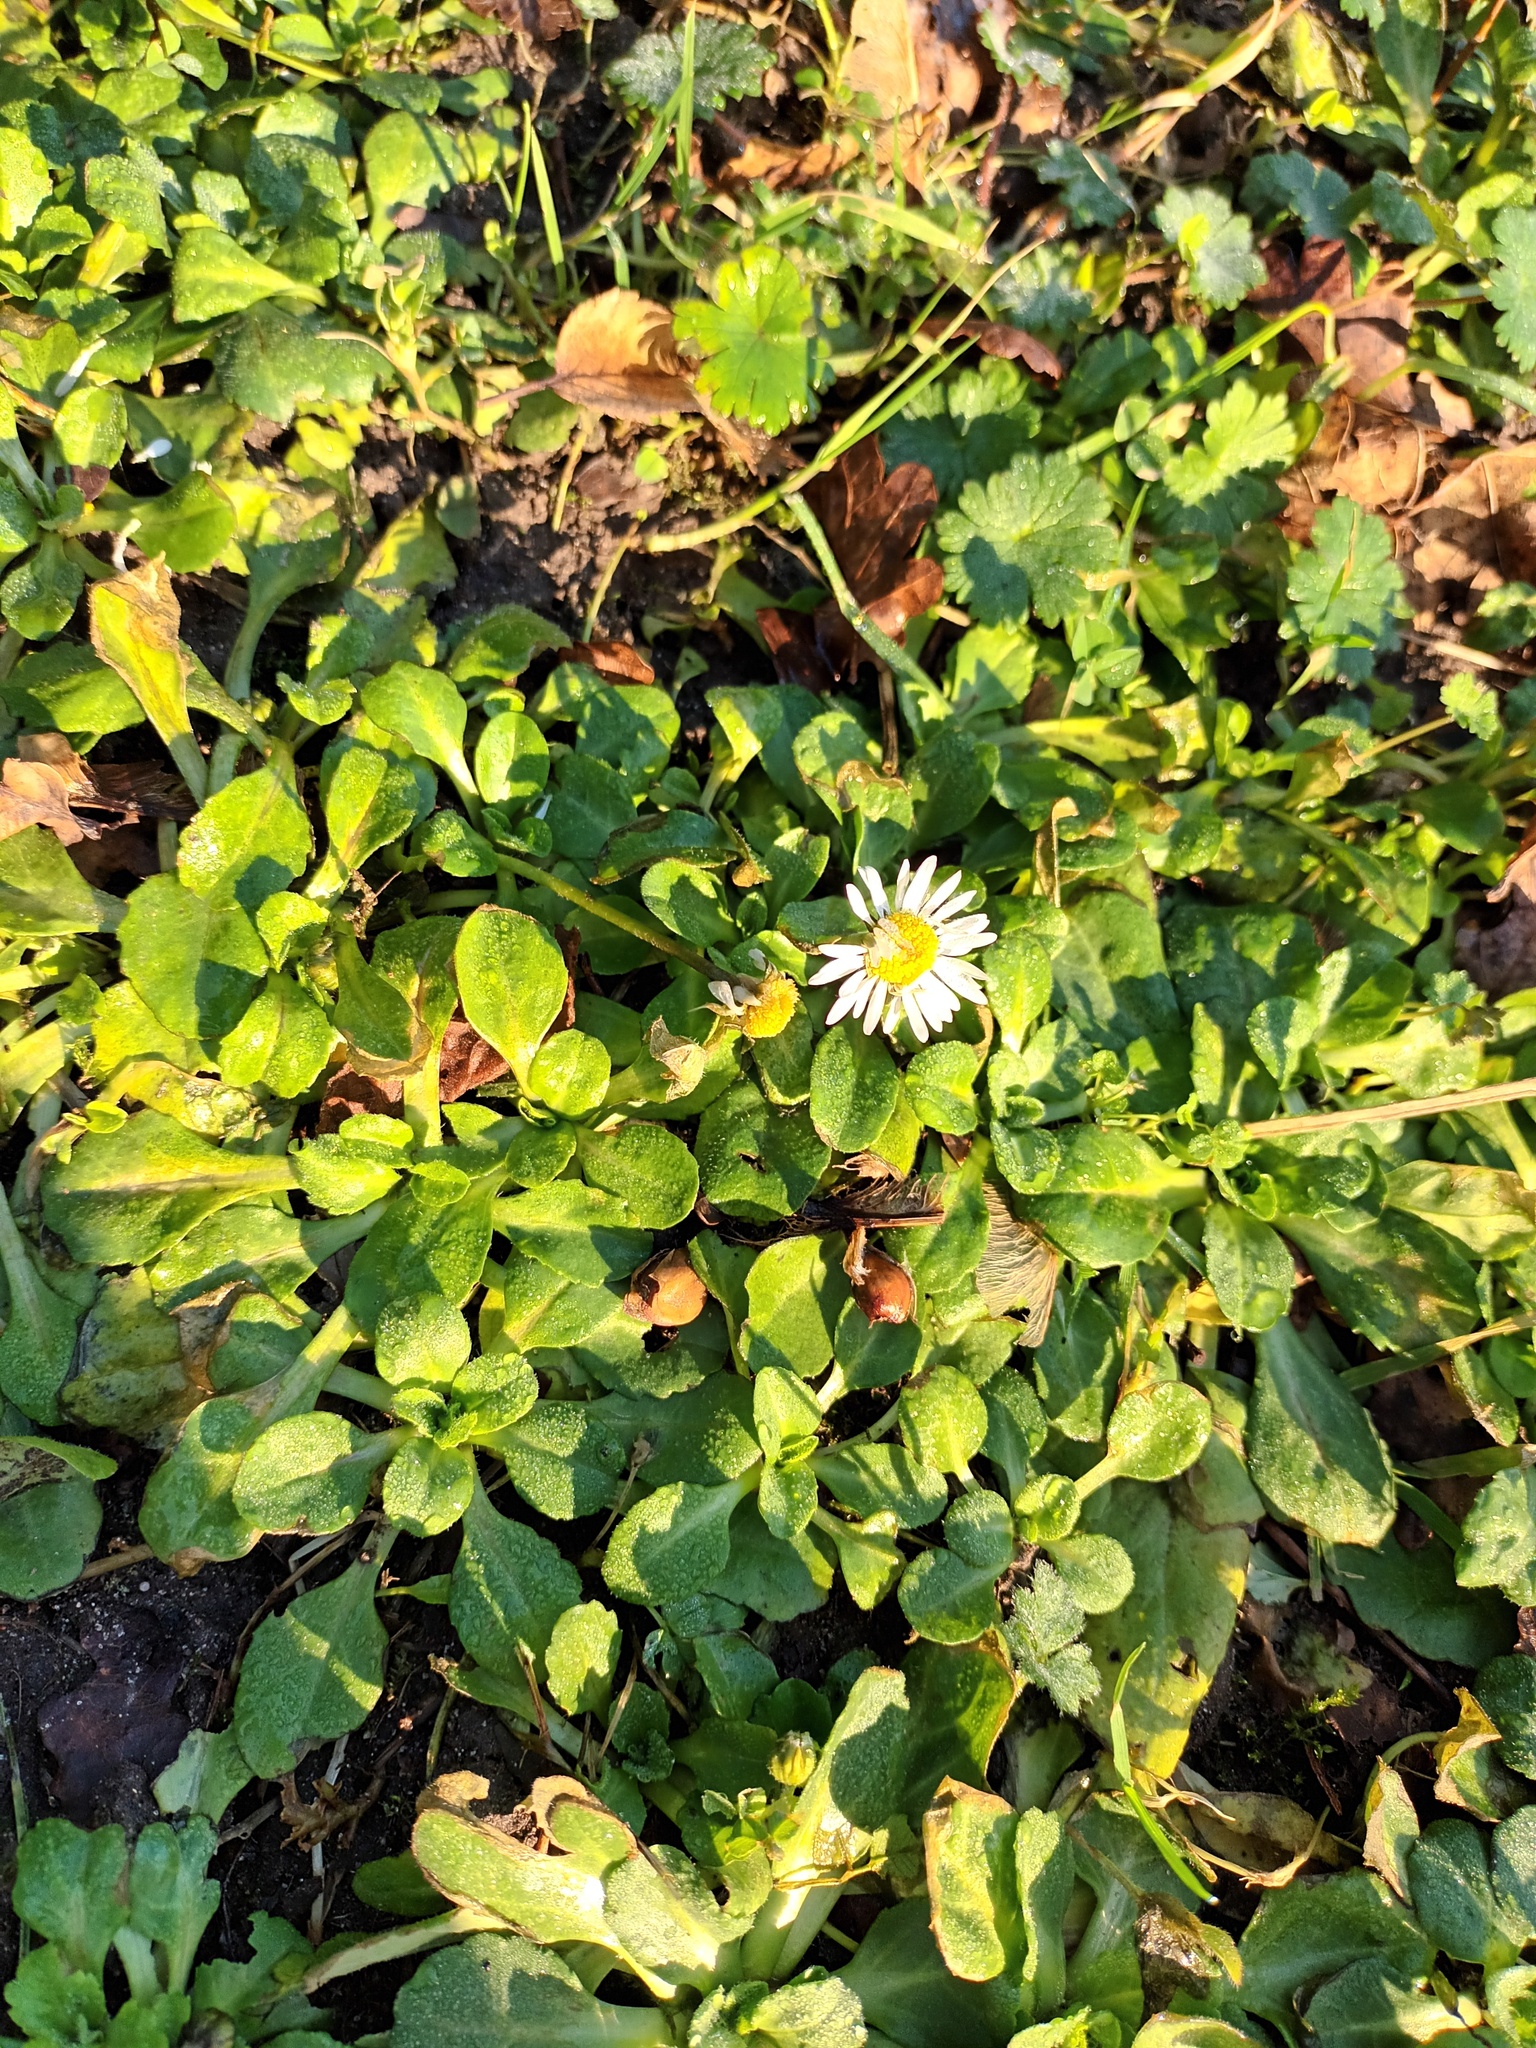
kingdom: Plantae
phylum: Tracheophyta
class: Magnoliopsida
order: Asterales
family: Asteraceae
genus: Bellis
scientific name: Bellis perennis
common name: Lawndaisy
